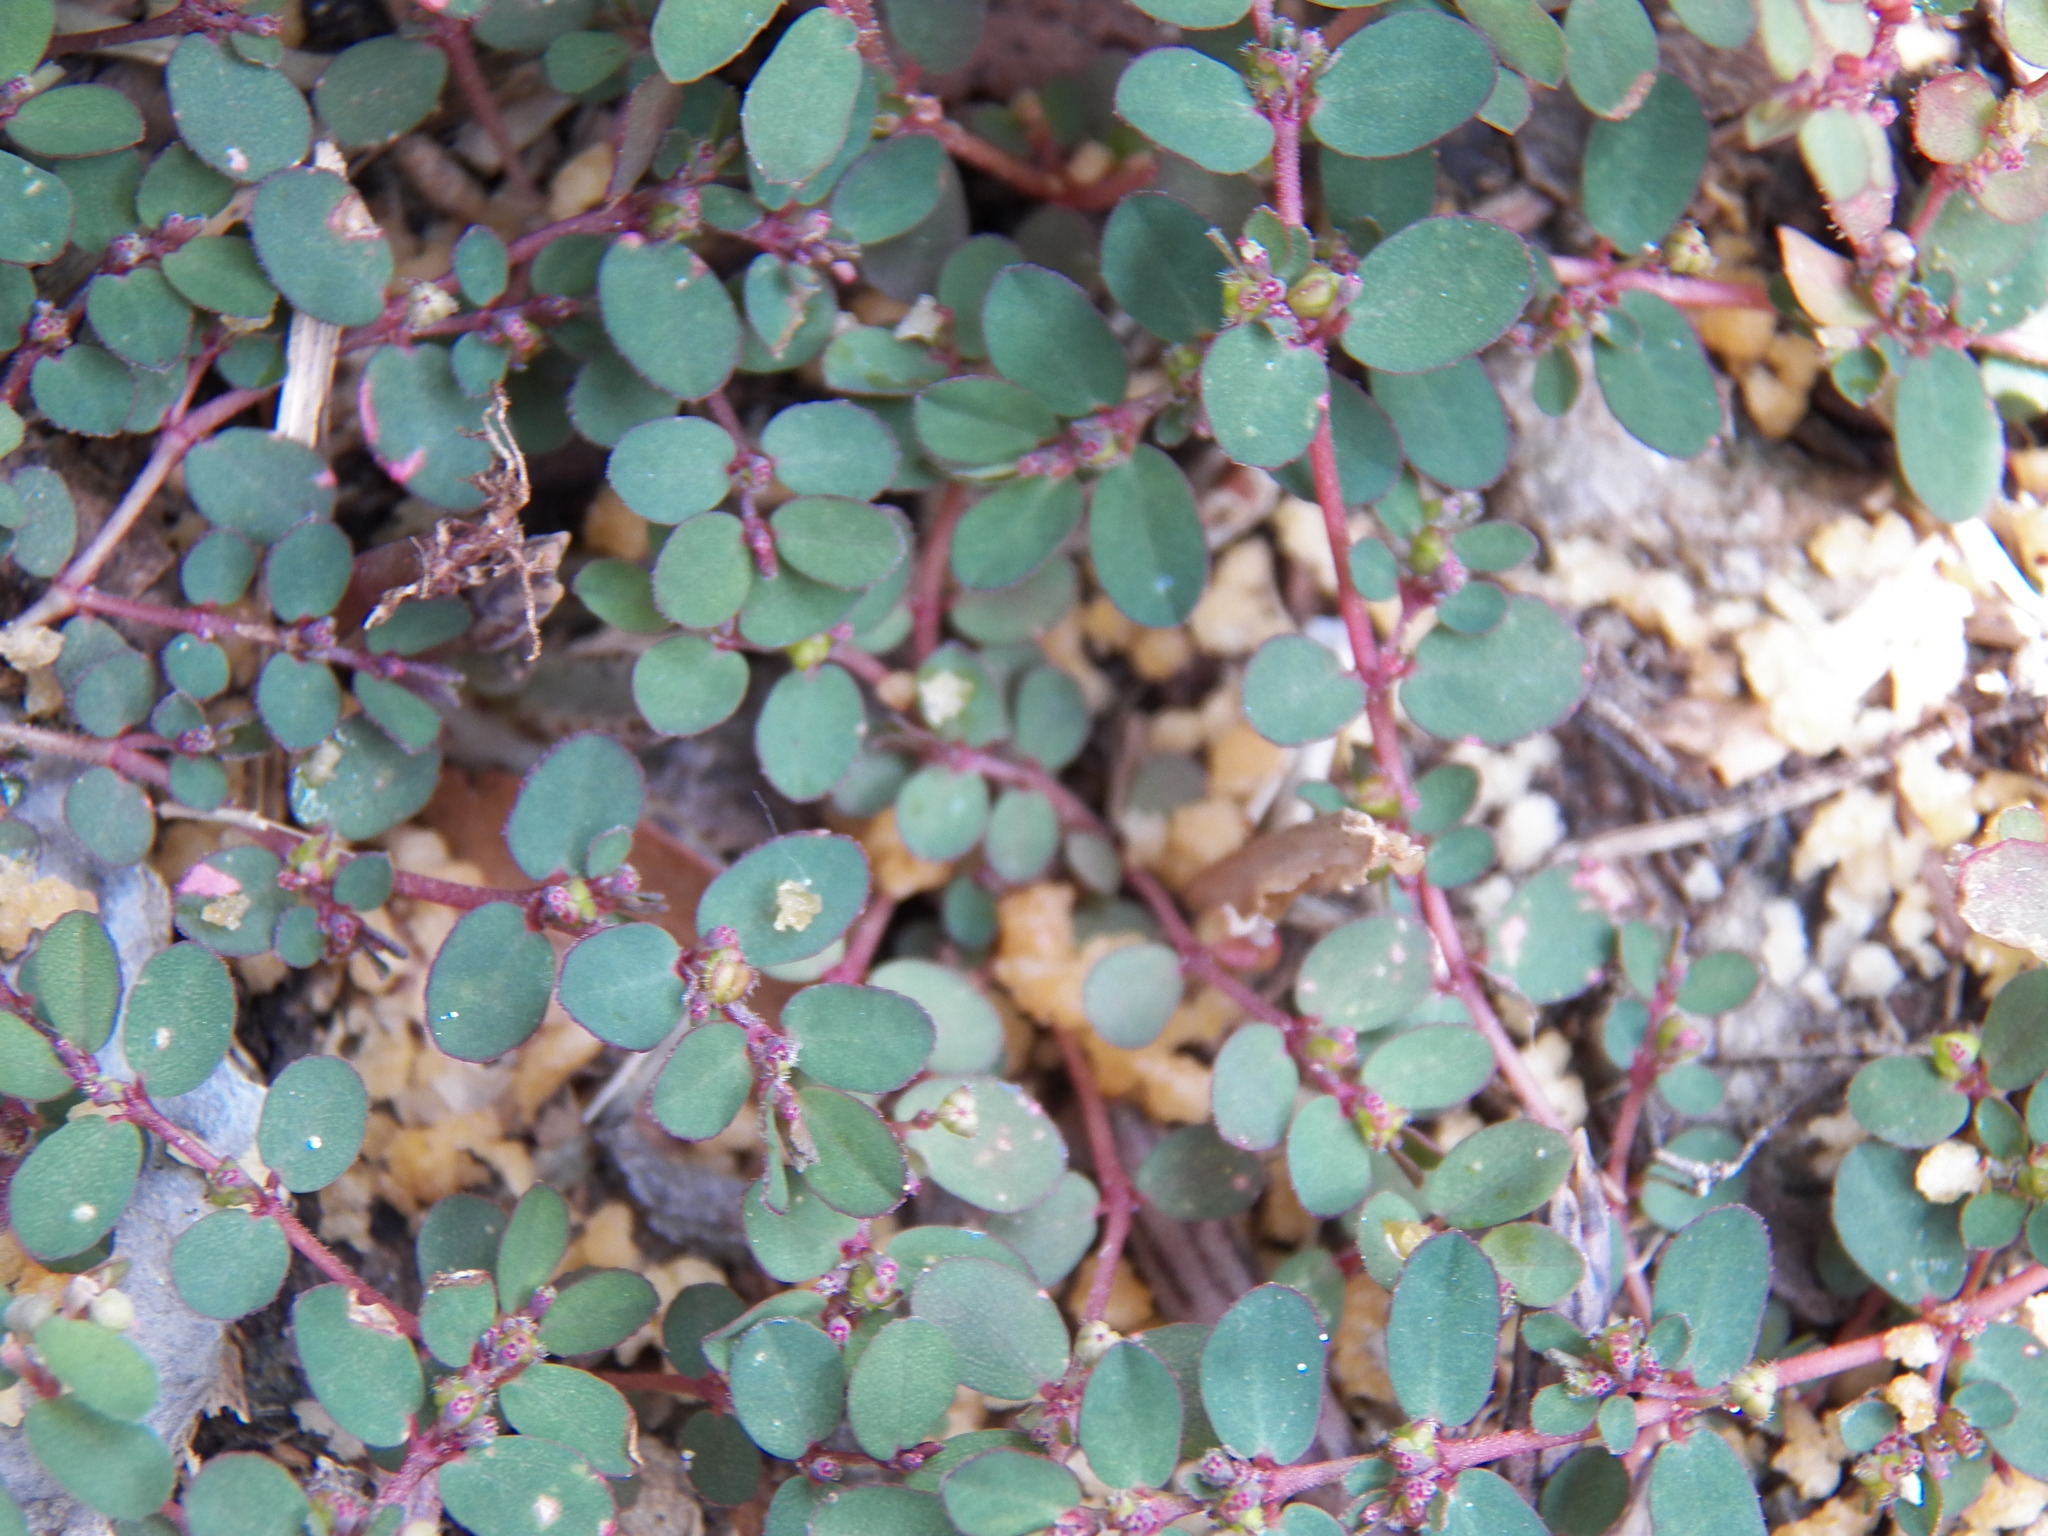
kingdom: Plantae
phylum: Tracheophyta
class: Magnoliopsida
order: Malpighiales
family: Euphorbiaceae
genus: Euphorbia
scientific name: Euphorbia prostrata
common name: Prostrate sandmat
